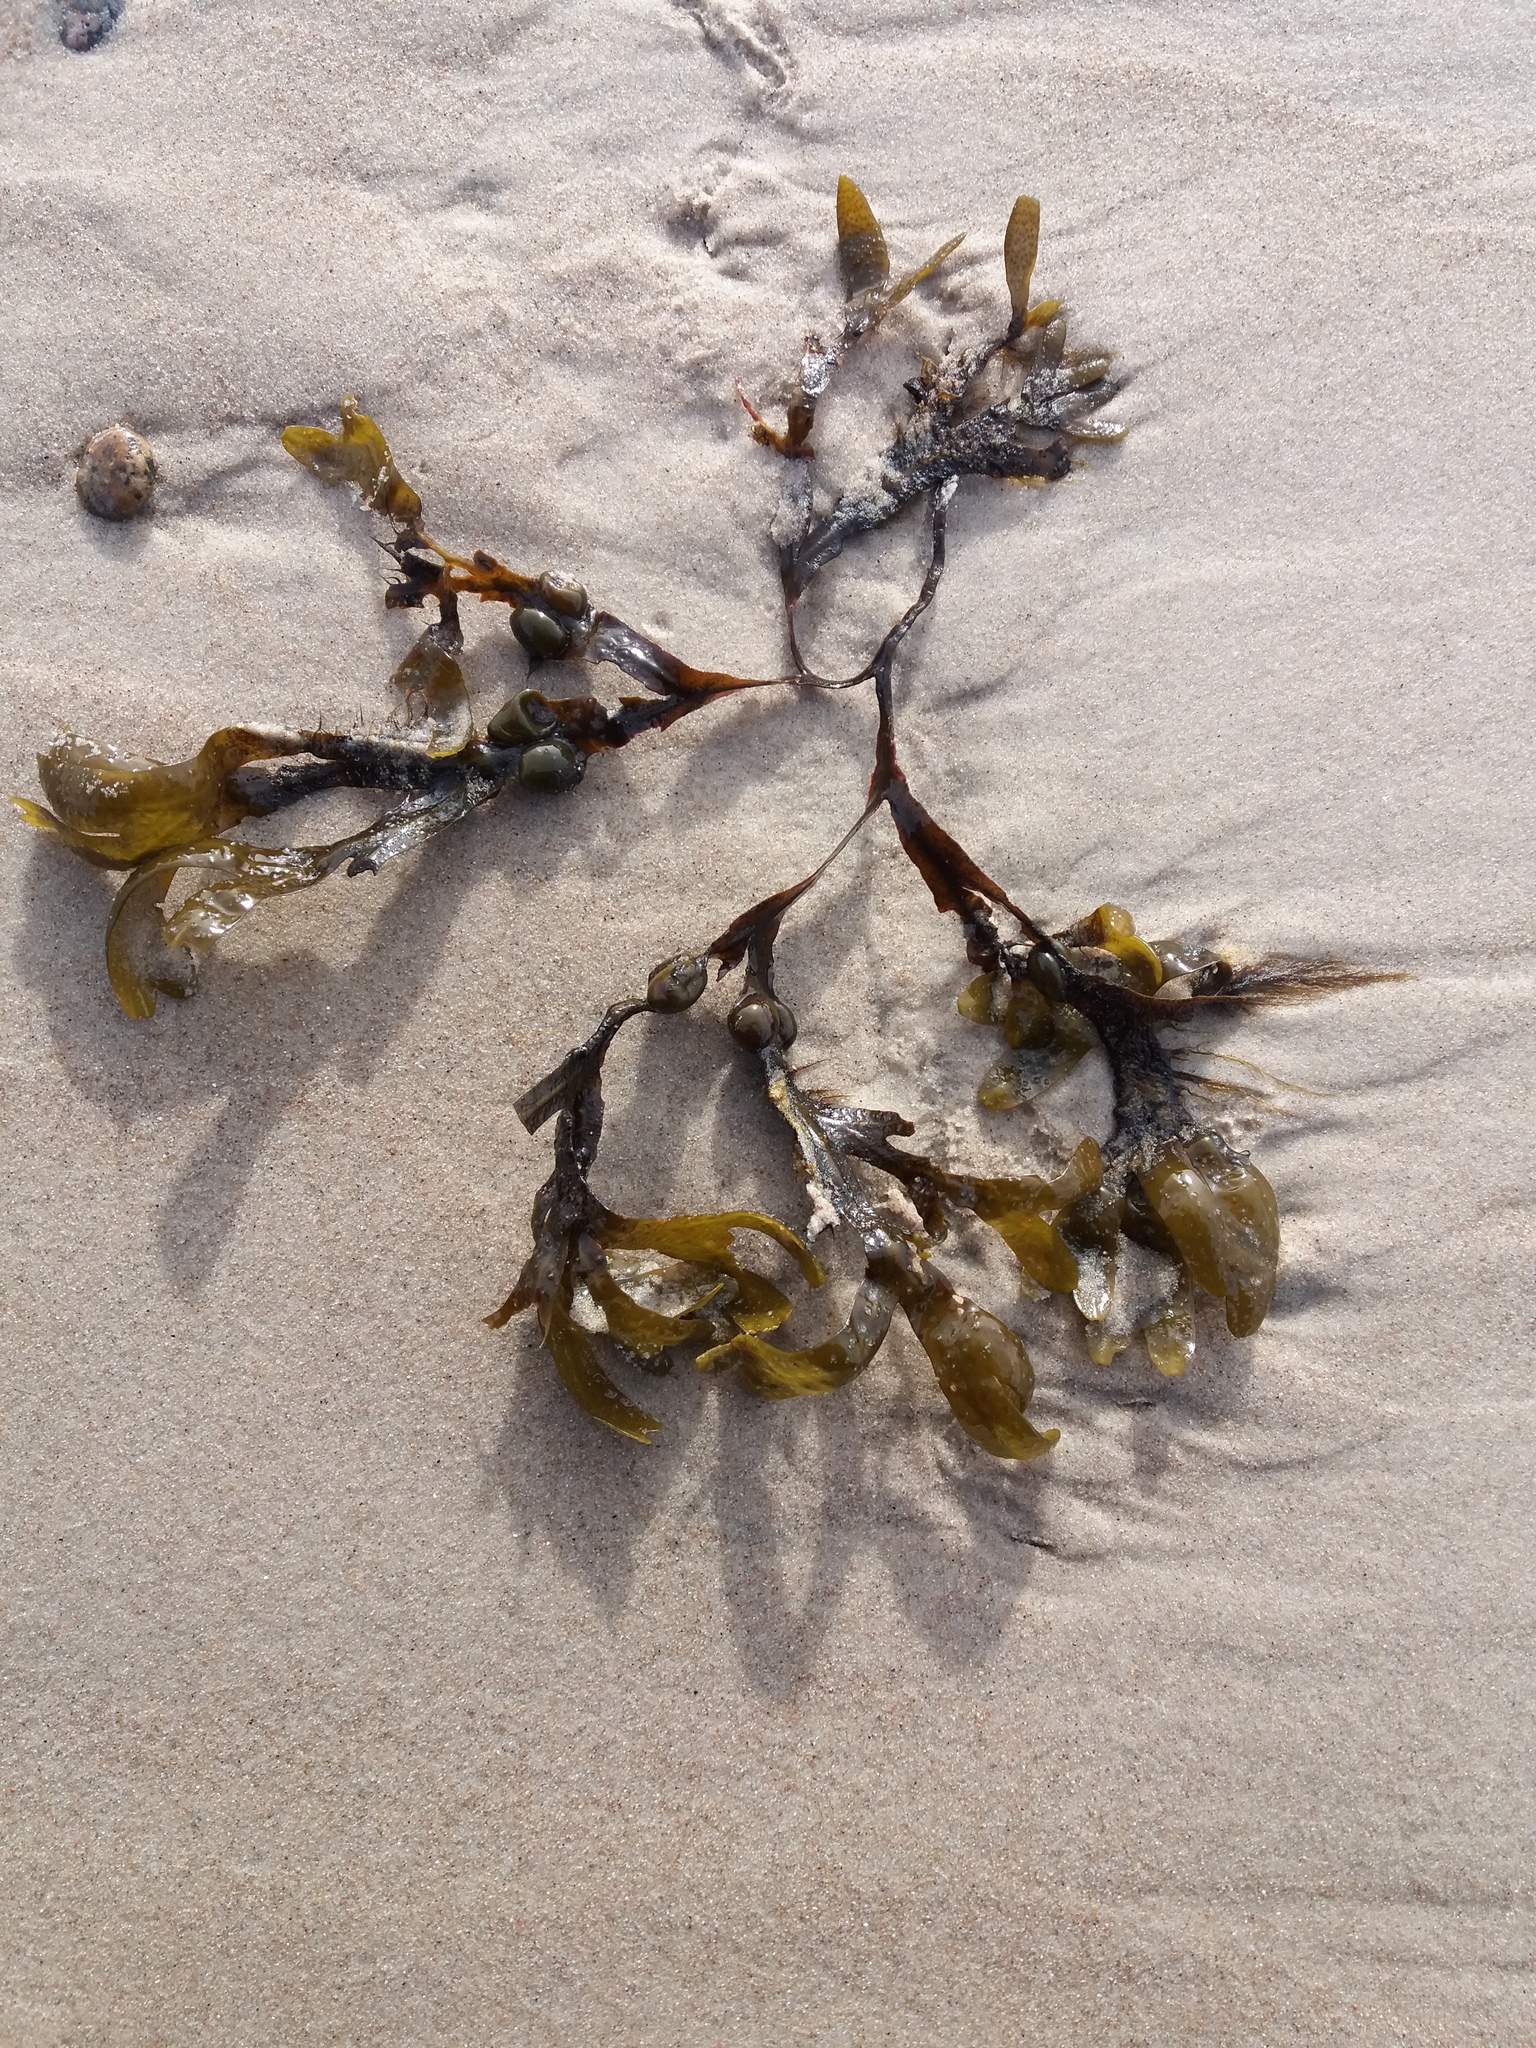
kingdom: Chromista
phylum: Ochrophyta
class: Phaeophyceae
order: Fucales
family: Fucaceae
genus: Fucus
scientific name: Fucus vesiculosus
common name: Bladder wrack
